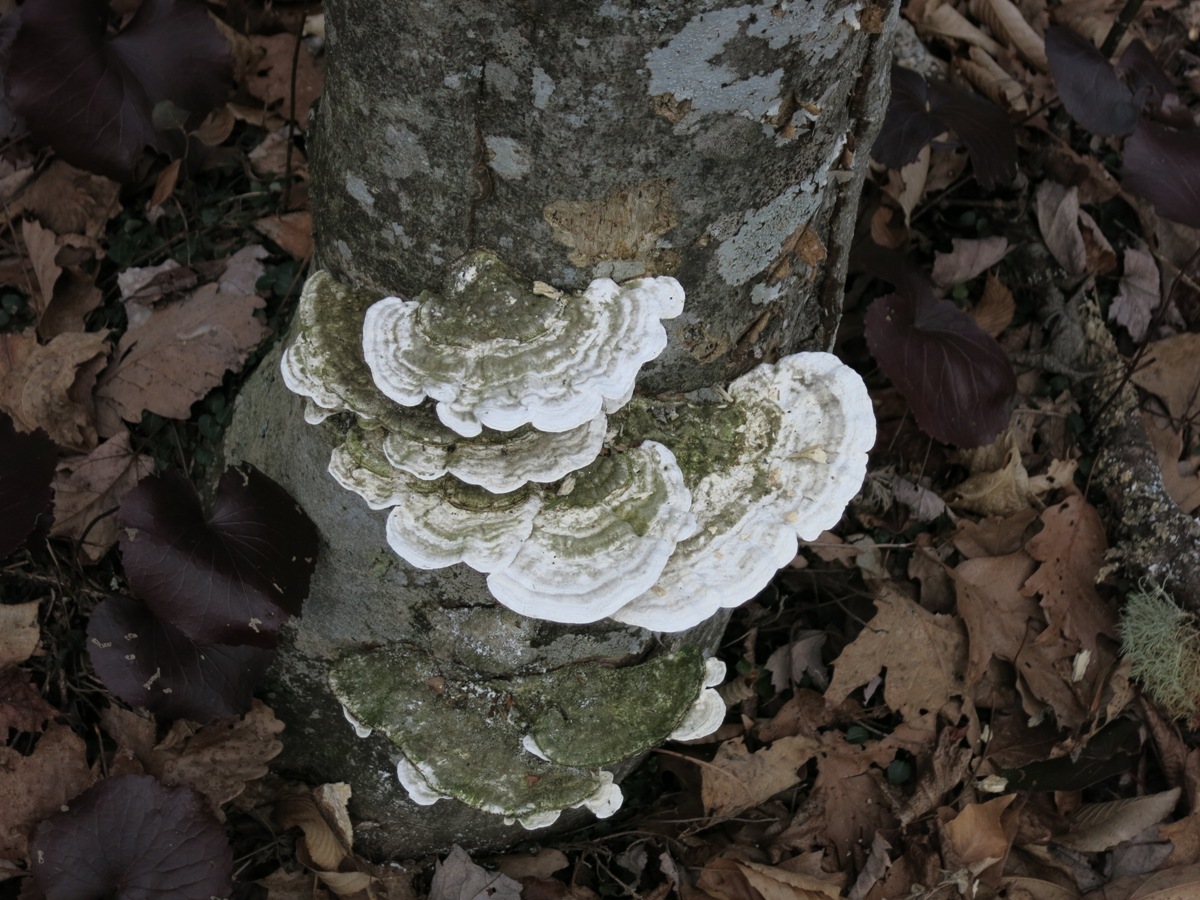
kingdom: Fungi
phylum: Basidiomycota
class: Agaricomycetes
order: Polyporales
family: Polyporaceae
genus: Trametes
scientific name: Trametes gibbosa
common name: Lumpy bracket
